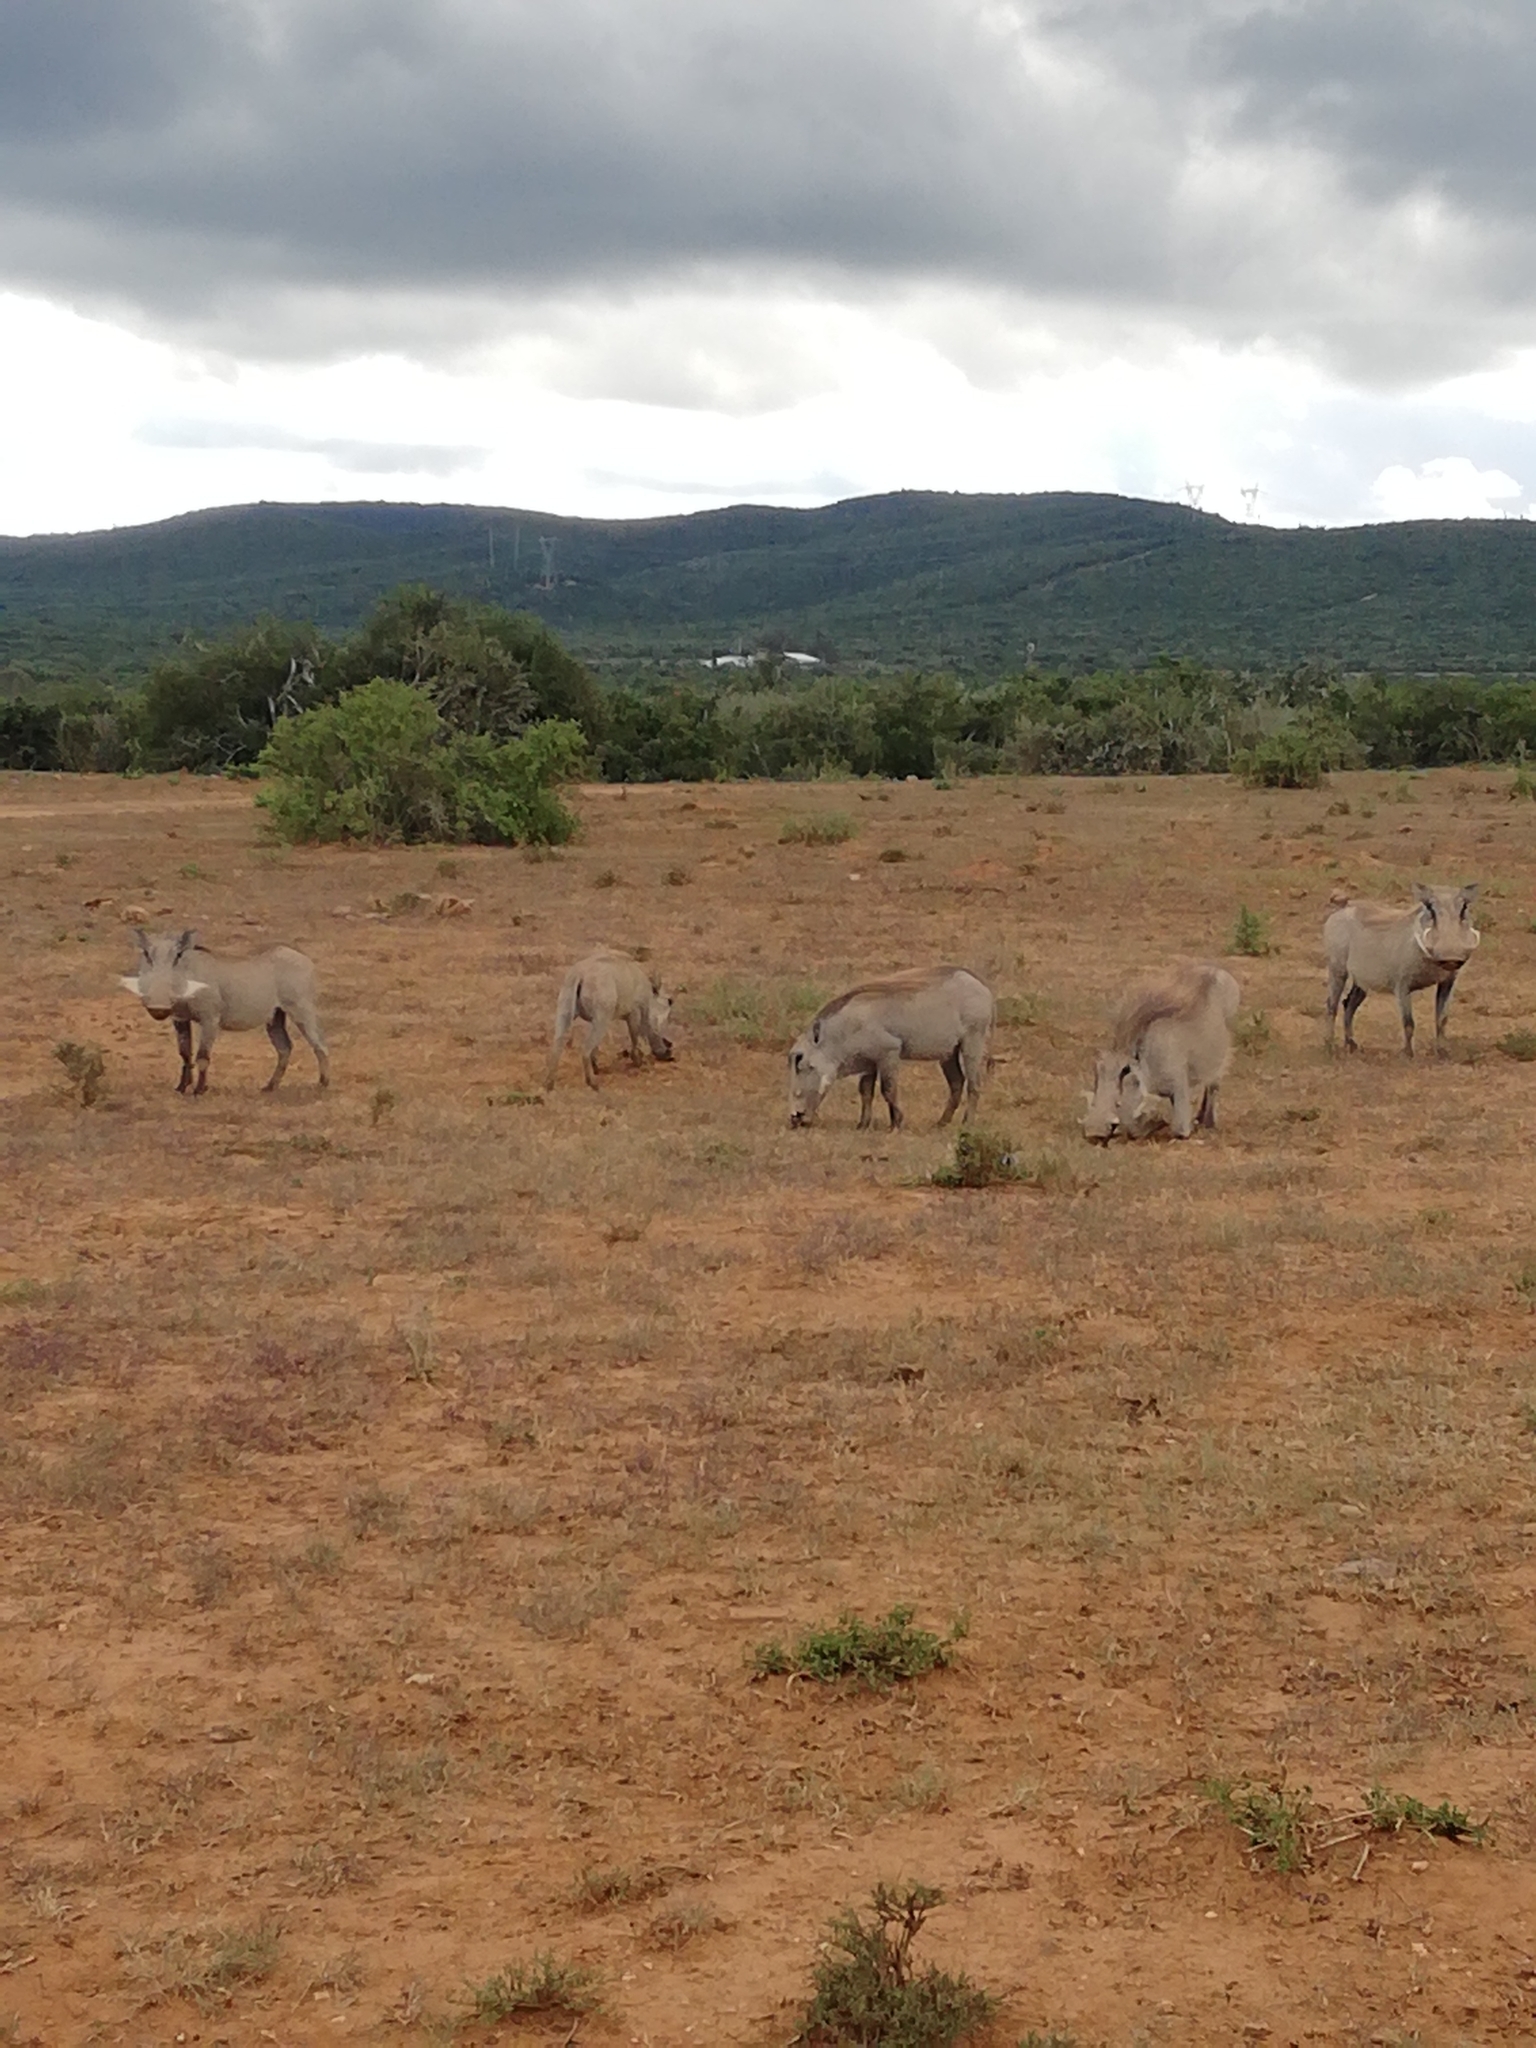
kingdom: Animalia
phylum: Chordata
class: Mammalia
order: Artiodactyla
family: Suidae
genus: Phacochoerus
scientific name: Phacochoerus africanus
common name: Common warthog
